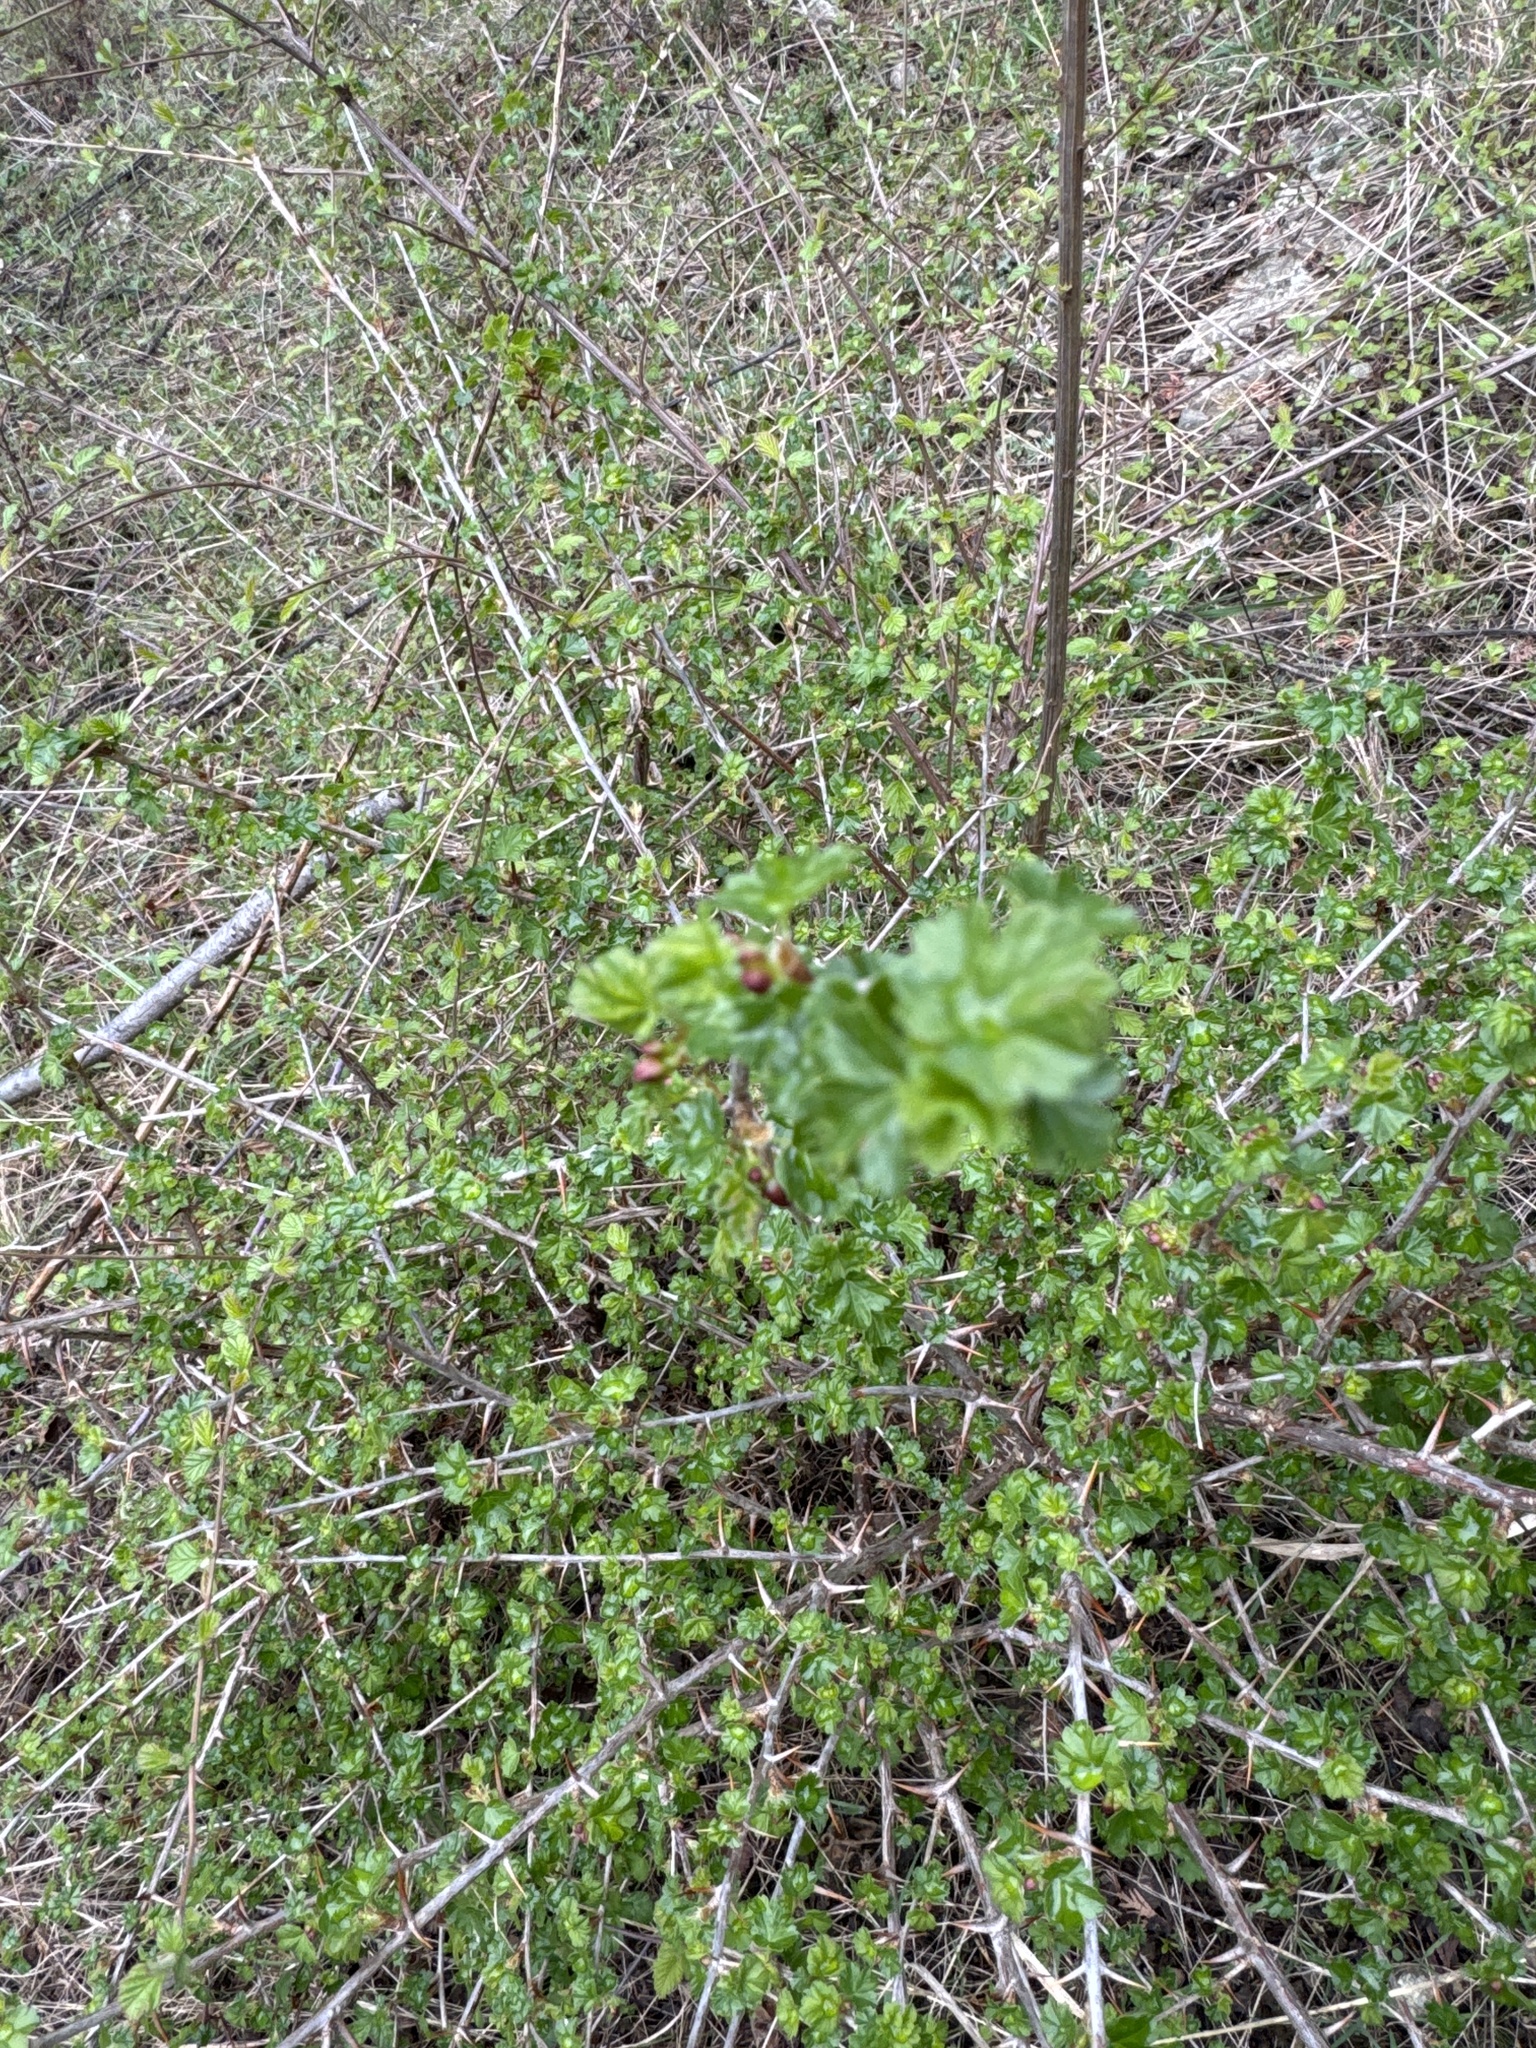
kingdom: Plantae
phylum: Tracheophyta
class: Magnoliopsida
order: Saxifragales
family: Grossulariaceae
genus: Ribes
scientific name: Ribes divaricatum
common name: Wild black gooseberry
